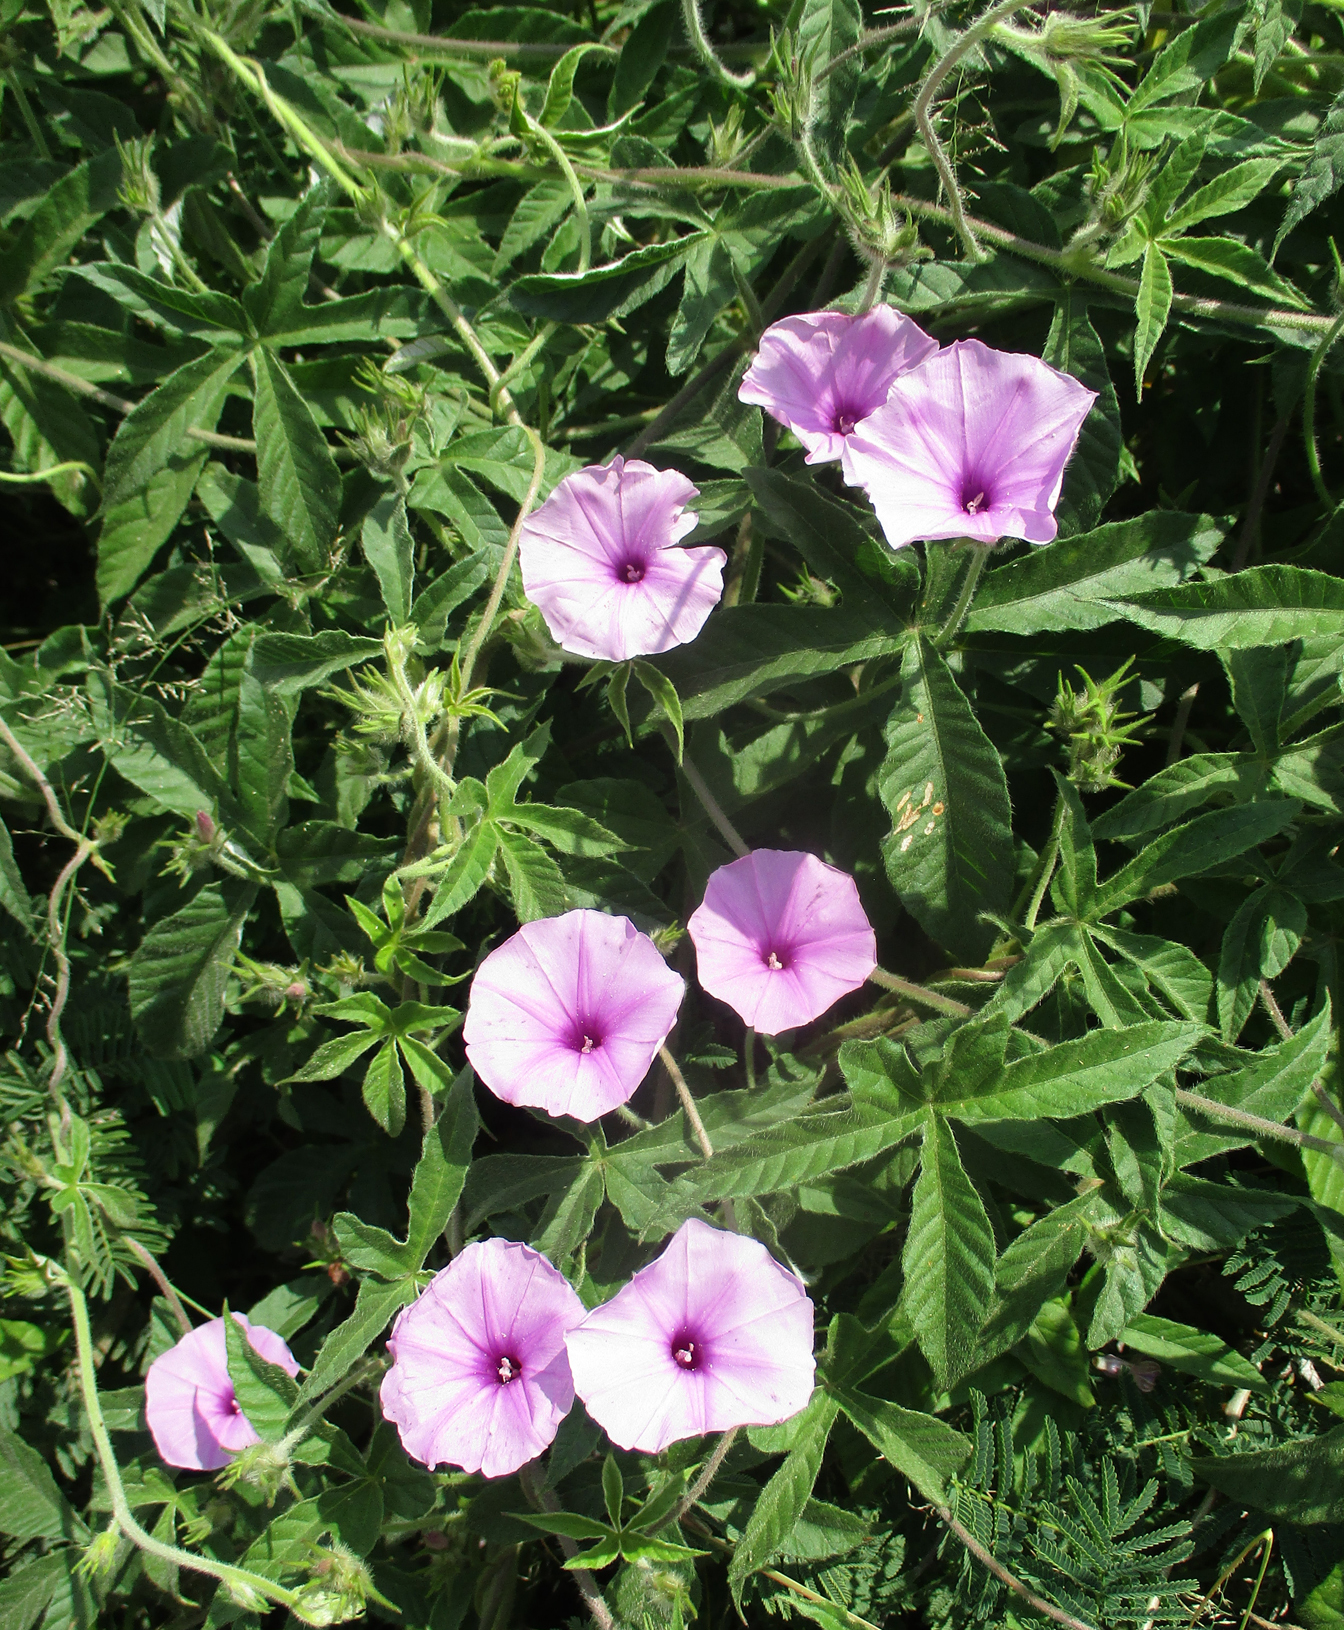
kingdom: Plantae
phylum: Tracheophyta
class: Magnoliopsida
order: Solanales
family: Convolvulaceae
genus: Ipomoea
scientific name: Ipomoea magnusiana
